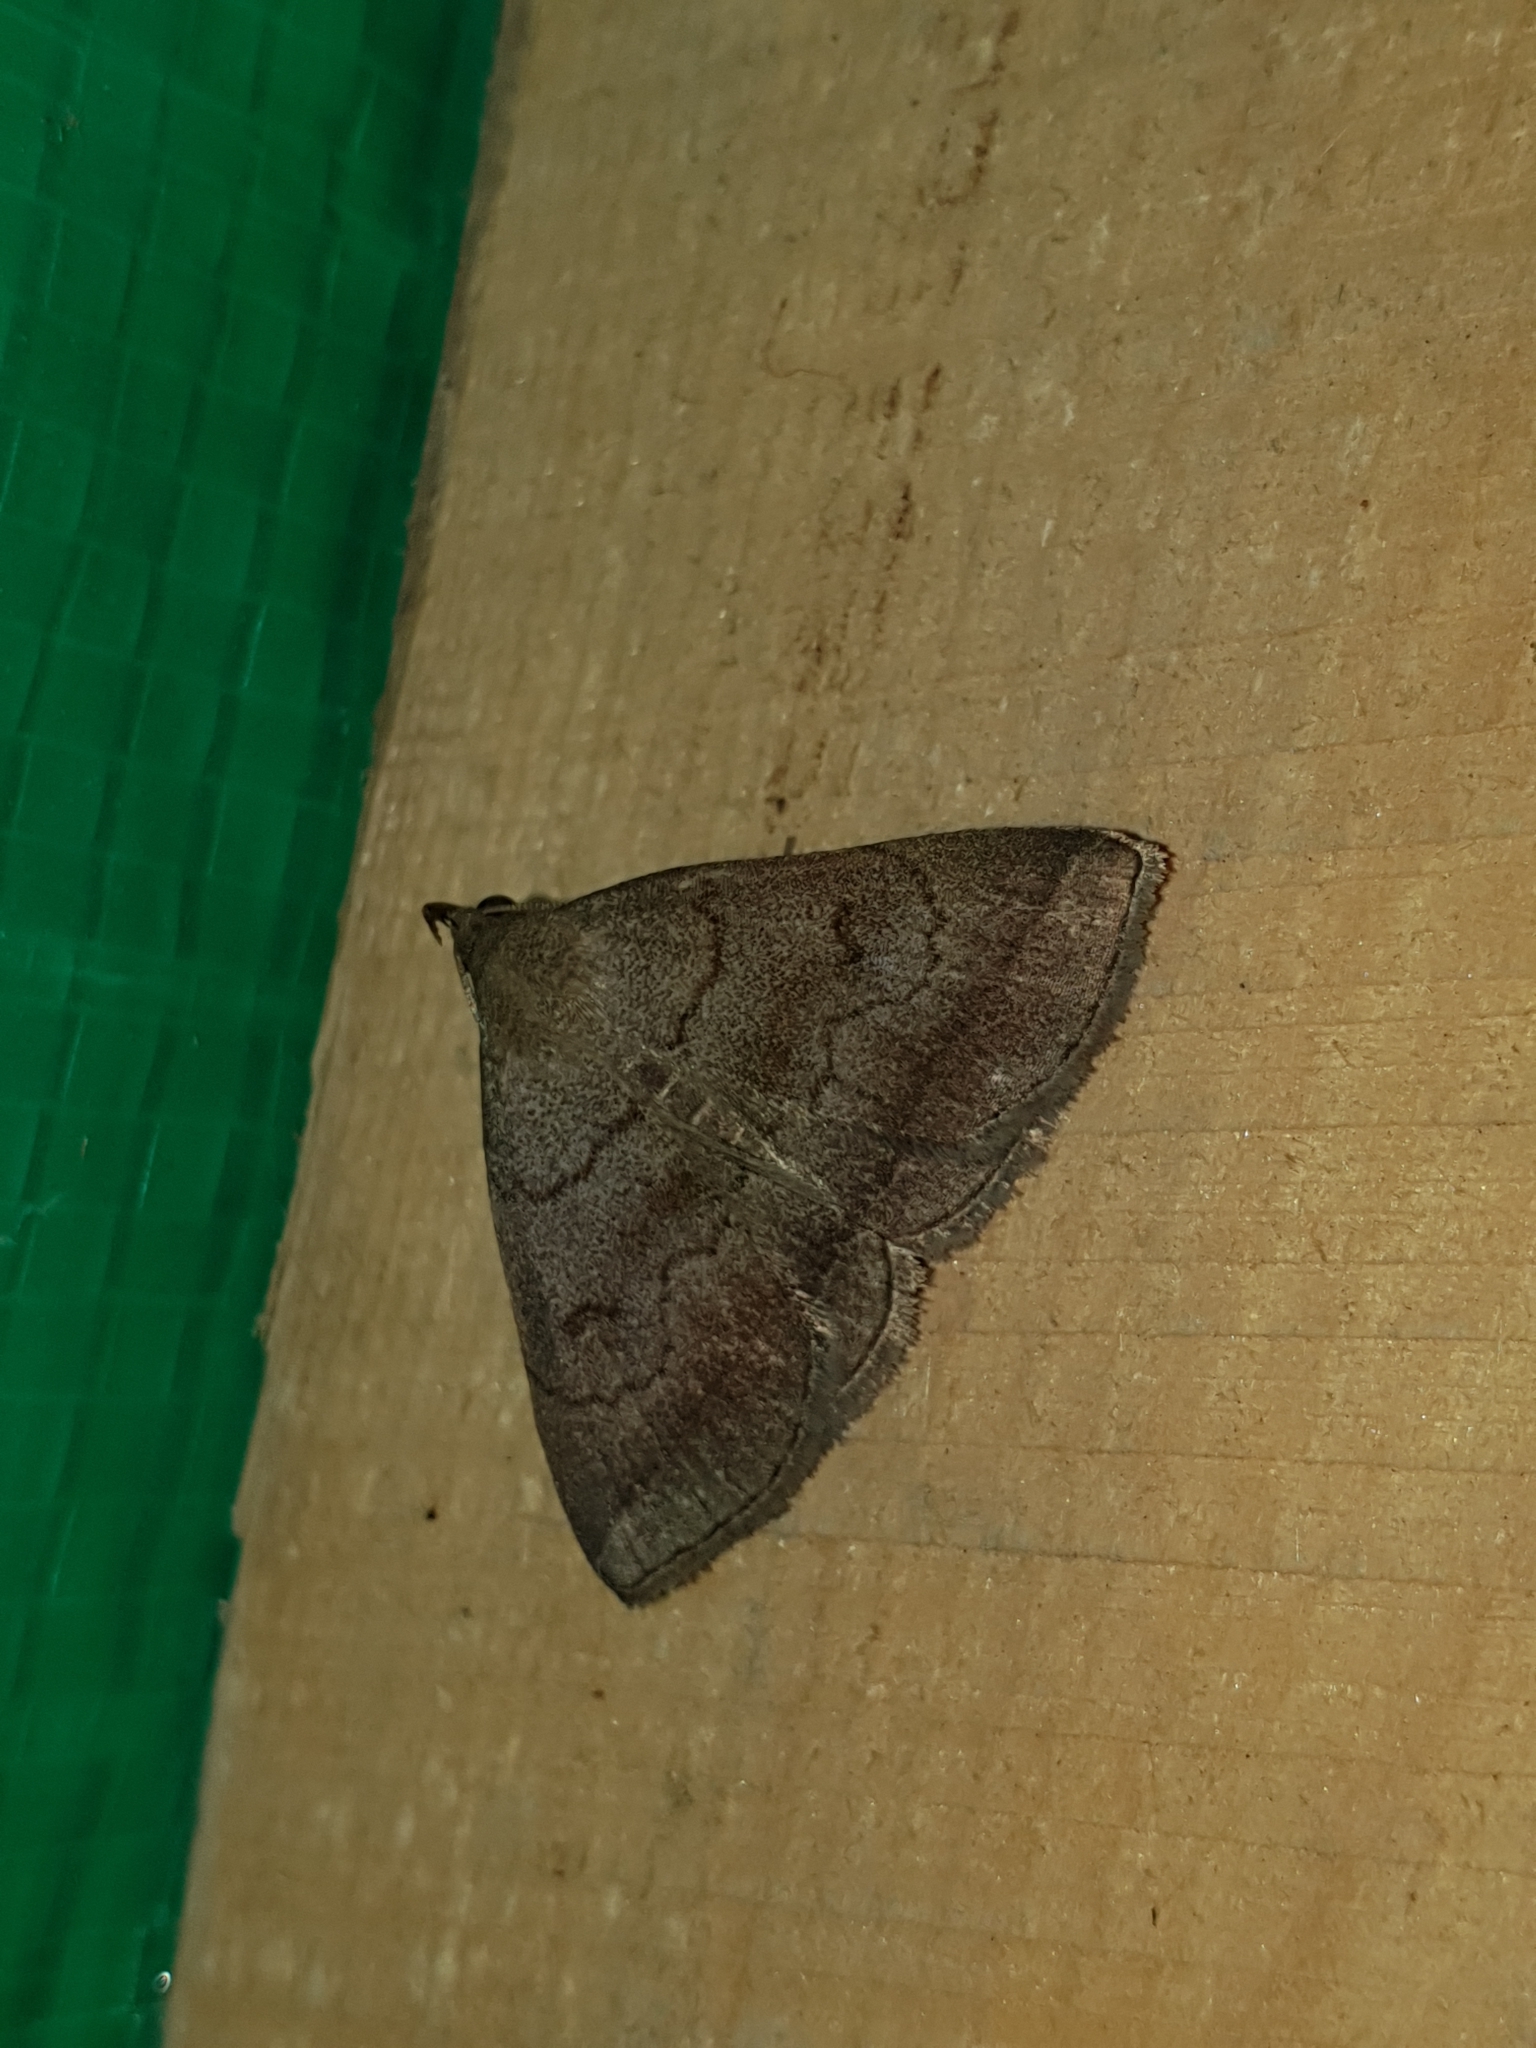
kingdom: Animalia
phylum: Arthropoda
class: Insecta
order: Lepidoptera
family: Erebidae
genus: Zanclognatha
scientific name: Zanclognatha lunalis
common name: Jubilee fan-foot
